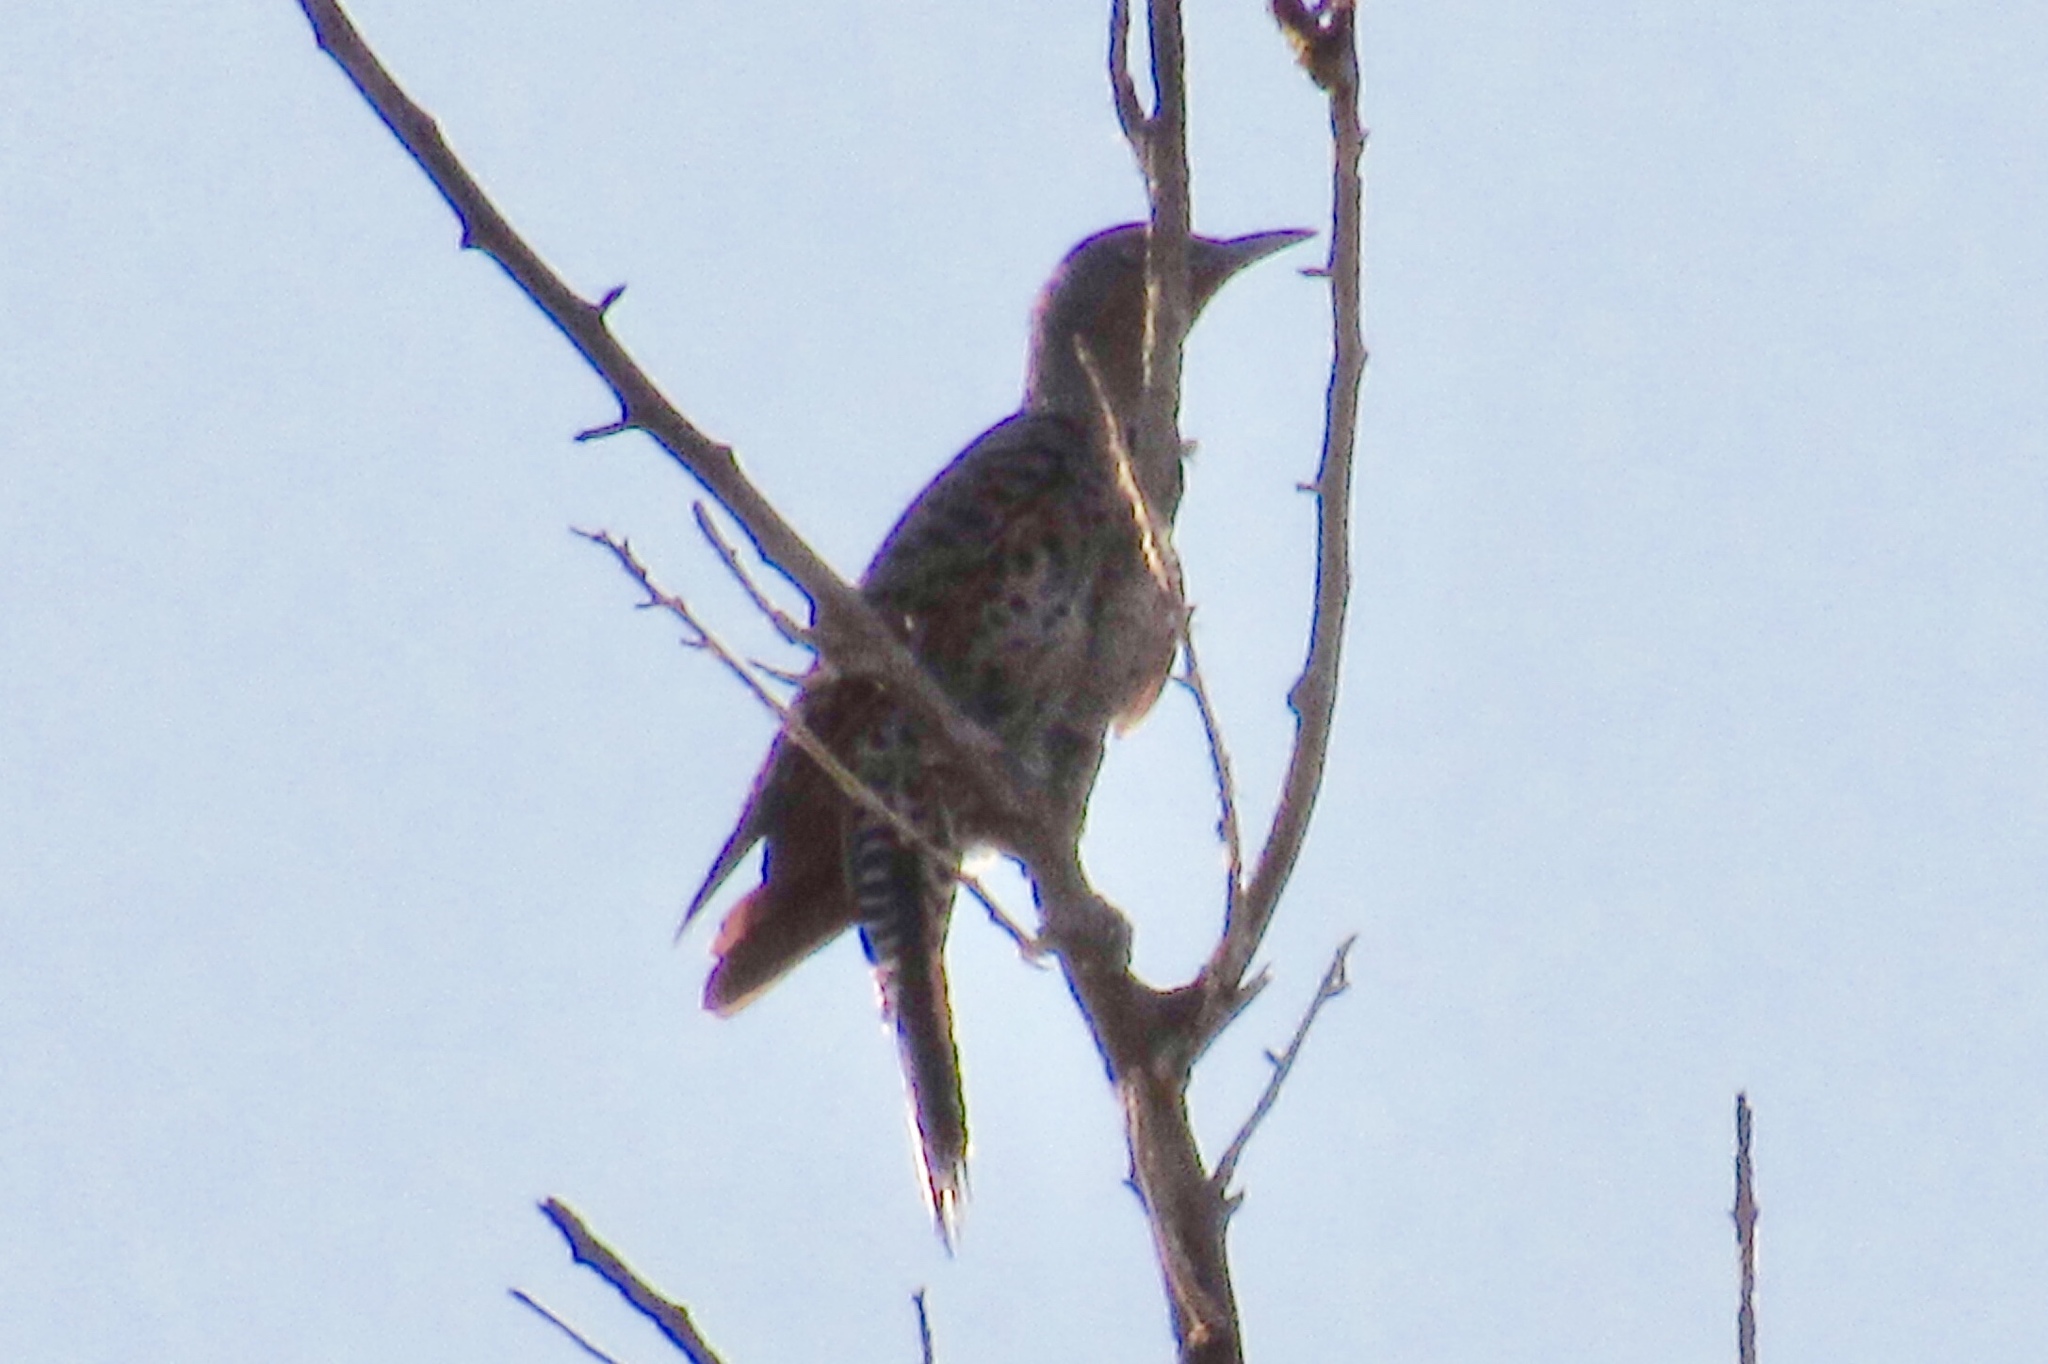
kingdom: Animalia
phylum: Chordata
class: Aves
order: Piciformes
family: Picidae
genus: Colaptes
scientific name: Colaptes auratus
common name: Northern flicker
